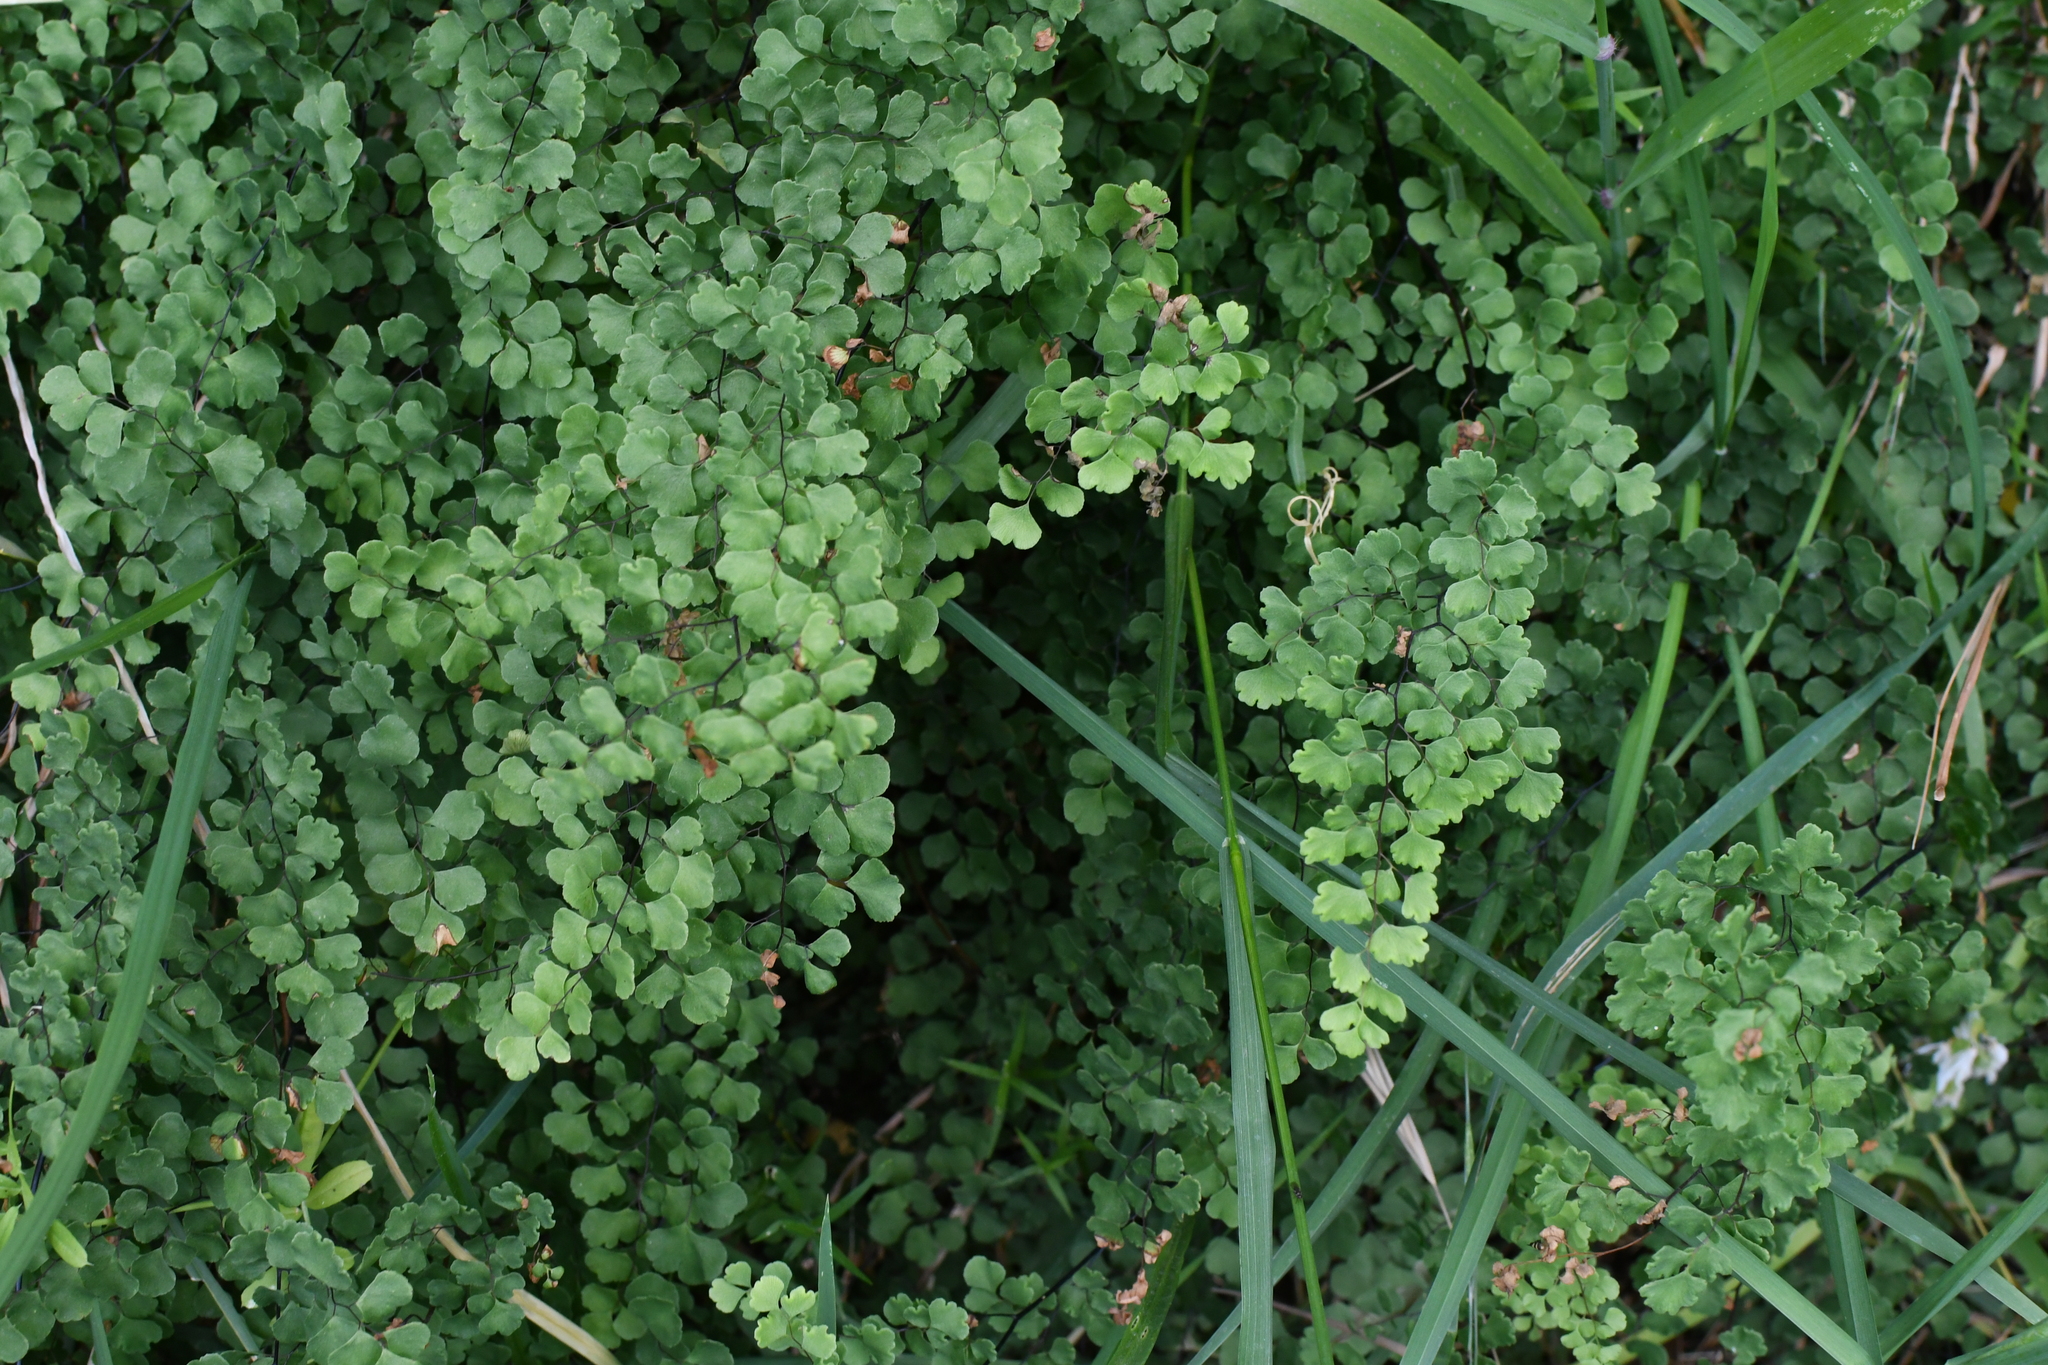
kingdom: Plantae
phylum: Tracheophyta
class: Polypodiopsida
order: Polypodiales
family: Pteridaceae
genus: Adiantum
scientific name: Adiantum aethiopicum
